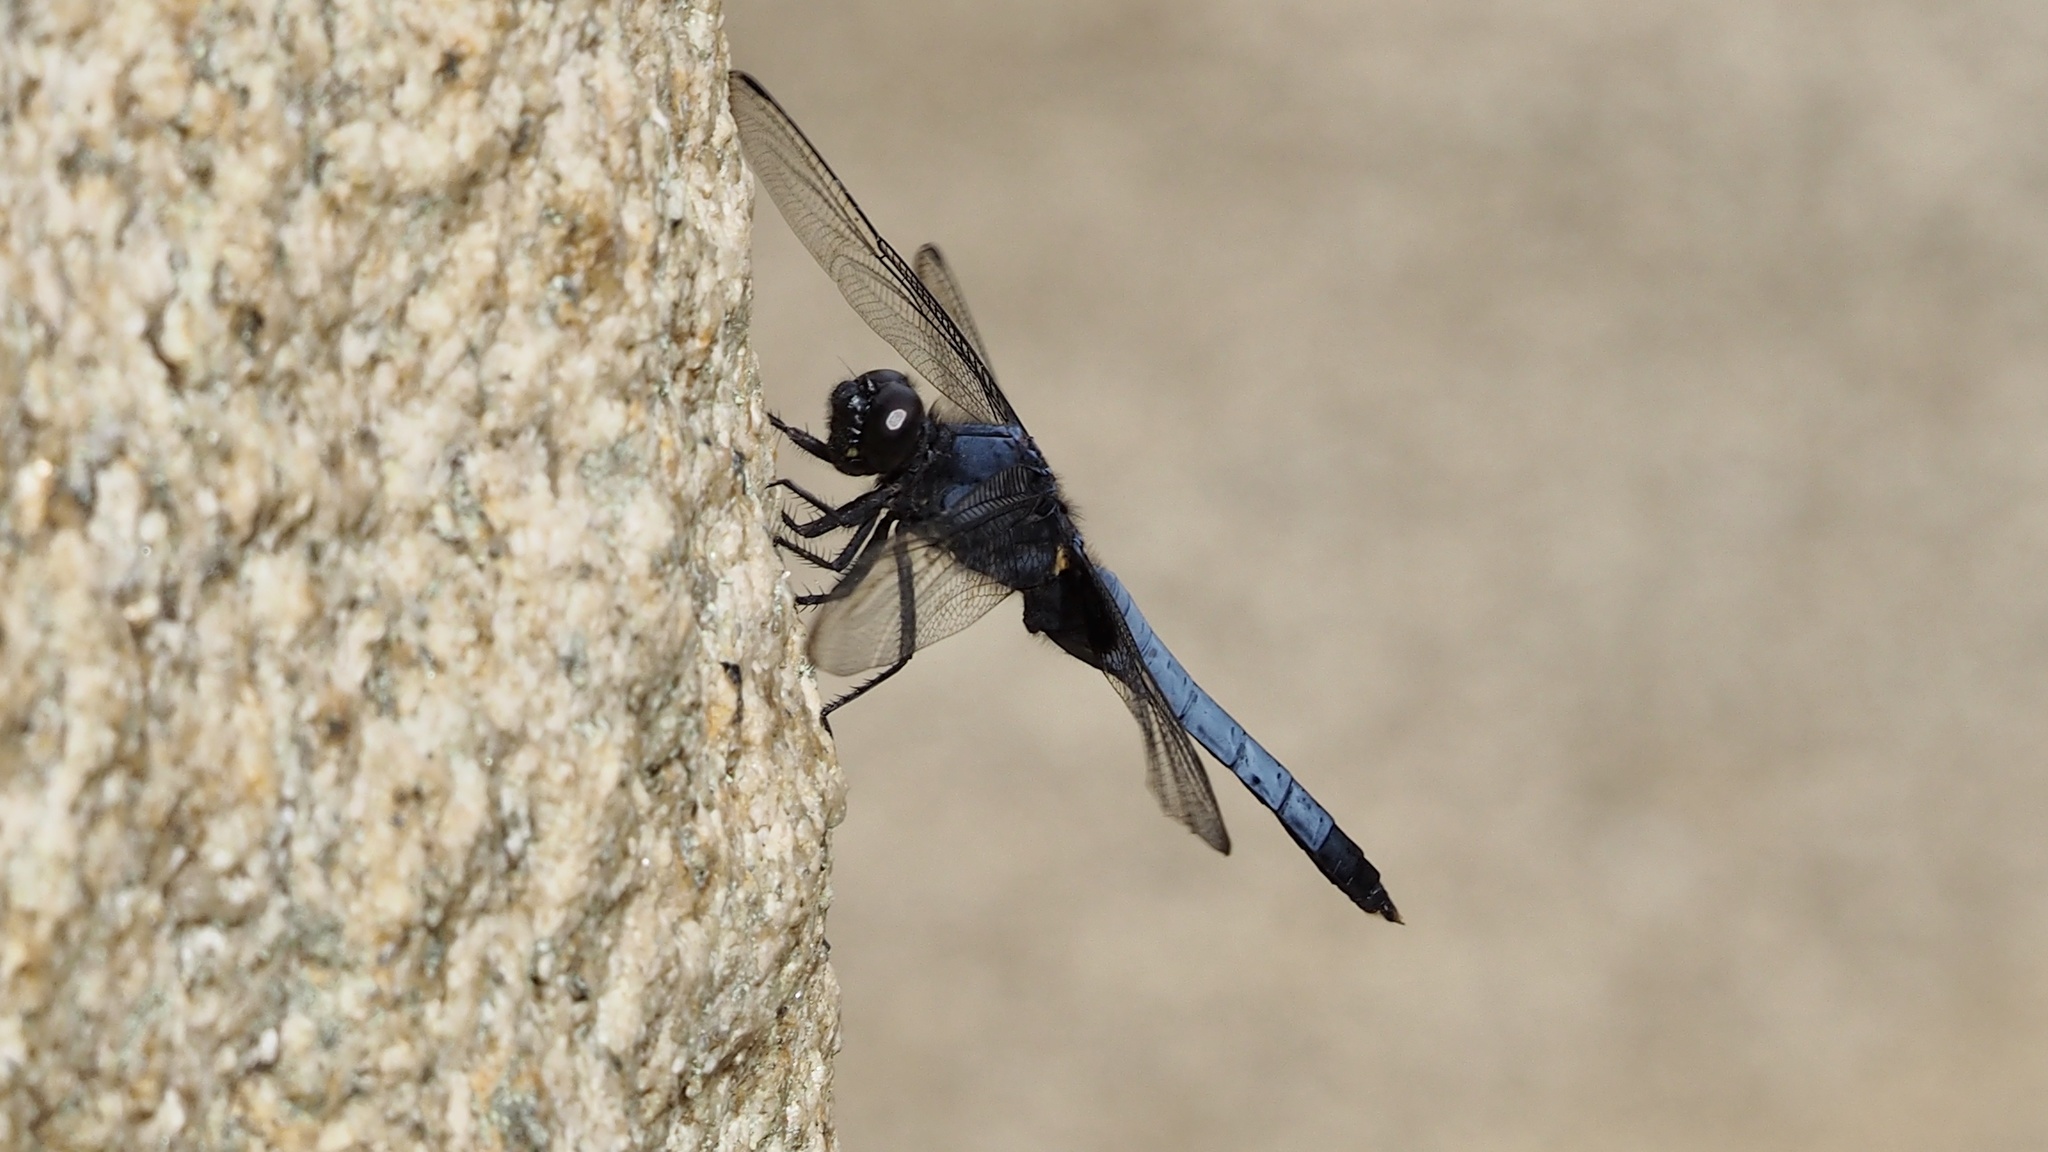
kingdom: Animalia
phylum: Arthropoda
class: Insecta
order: Odonata
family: Libellulidae
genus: Orthetrum
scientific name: Orthetrum melania
